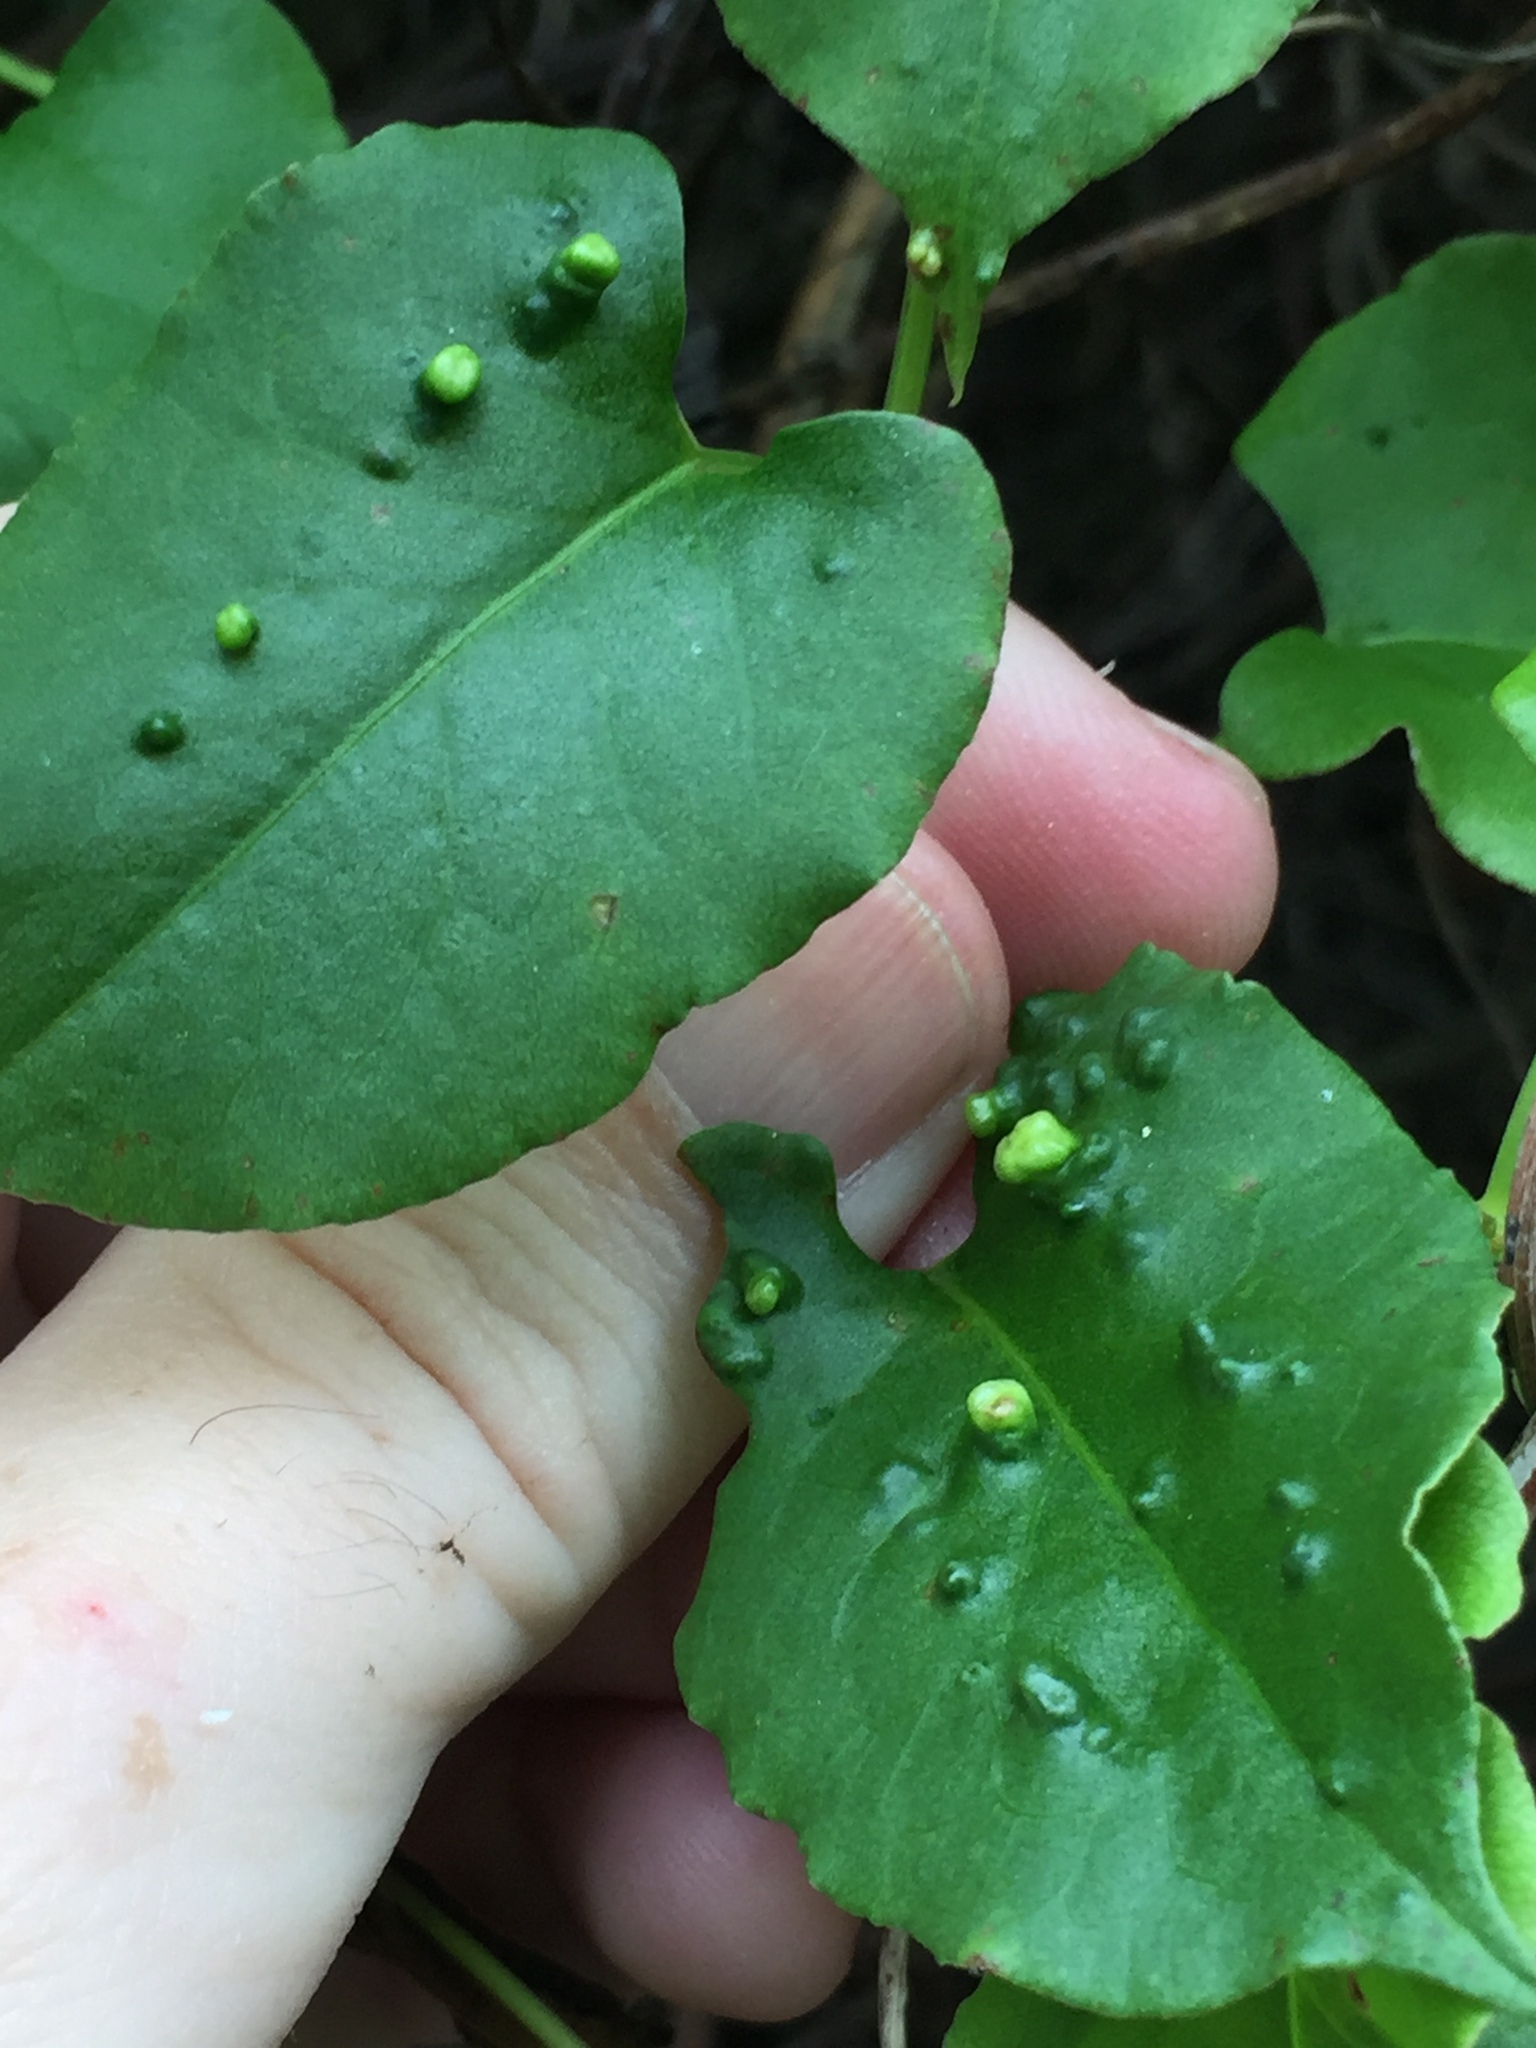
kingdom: Animalia
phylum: Arthropoda
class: Arachnida
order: Trombidiformes
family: Eriophyidae
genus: Aceria
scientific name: Aceria lamii
